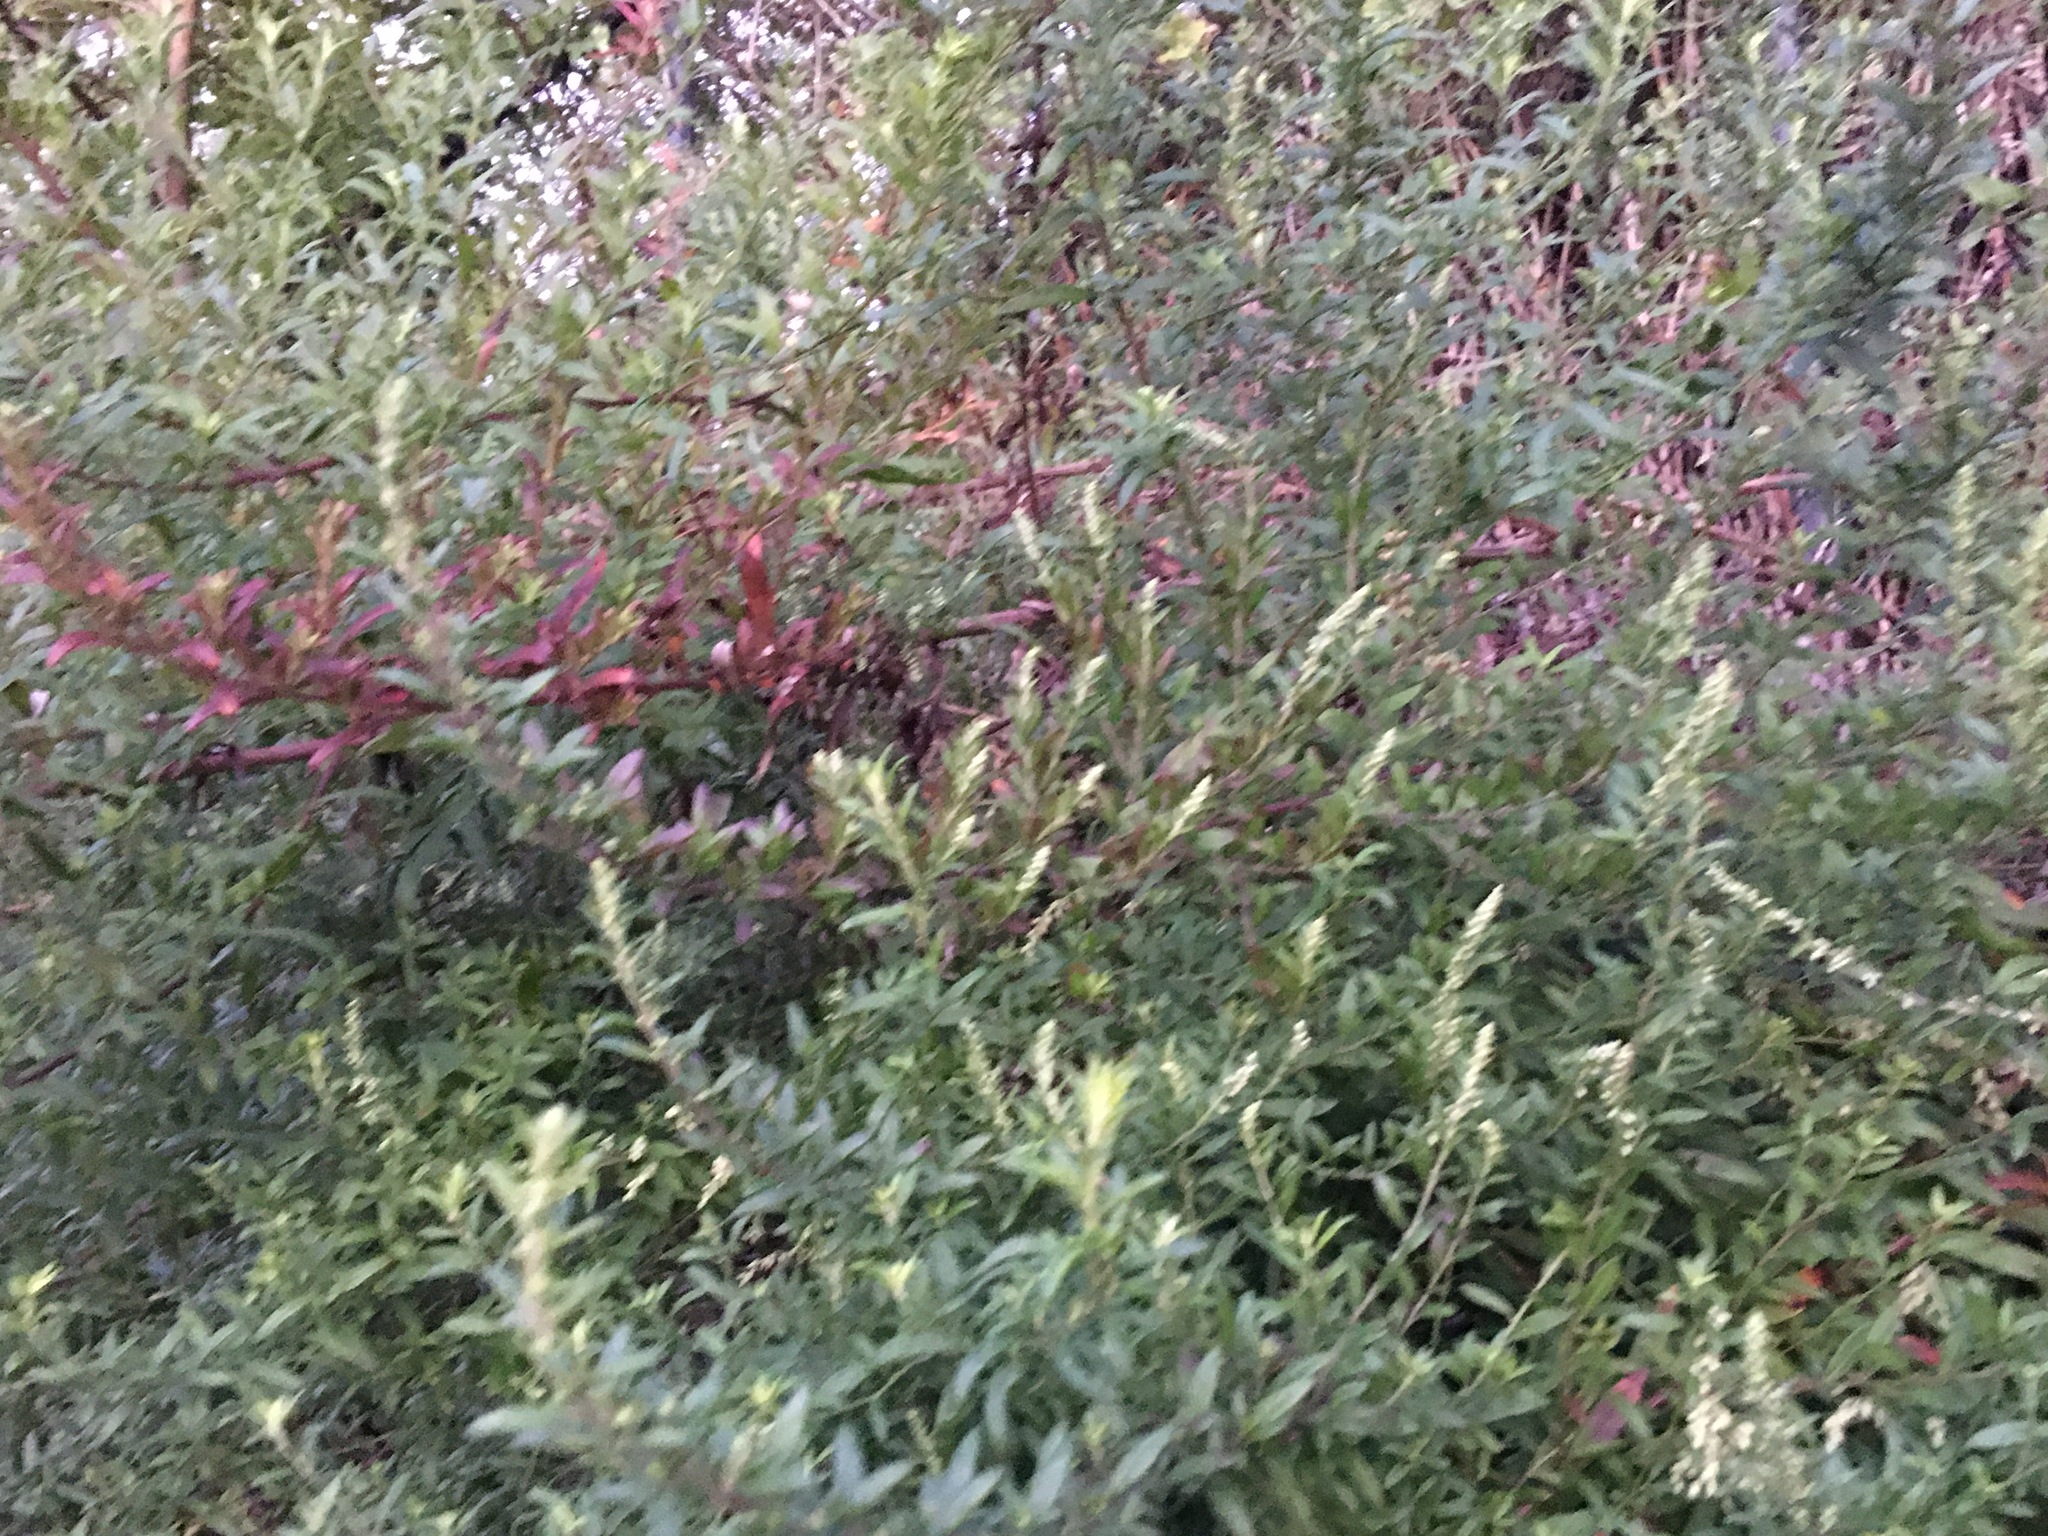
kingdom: Plantae
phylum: Tracheophyta
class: Magnoliopsida
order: Asterales
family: Asteraceae
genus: Artemisia
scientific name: Artemisia vulgaris
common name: Mugwort
